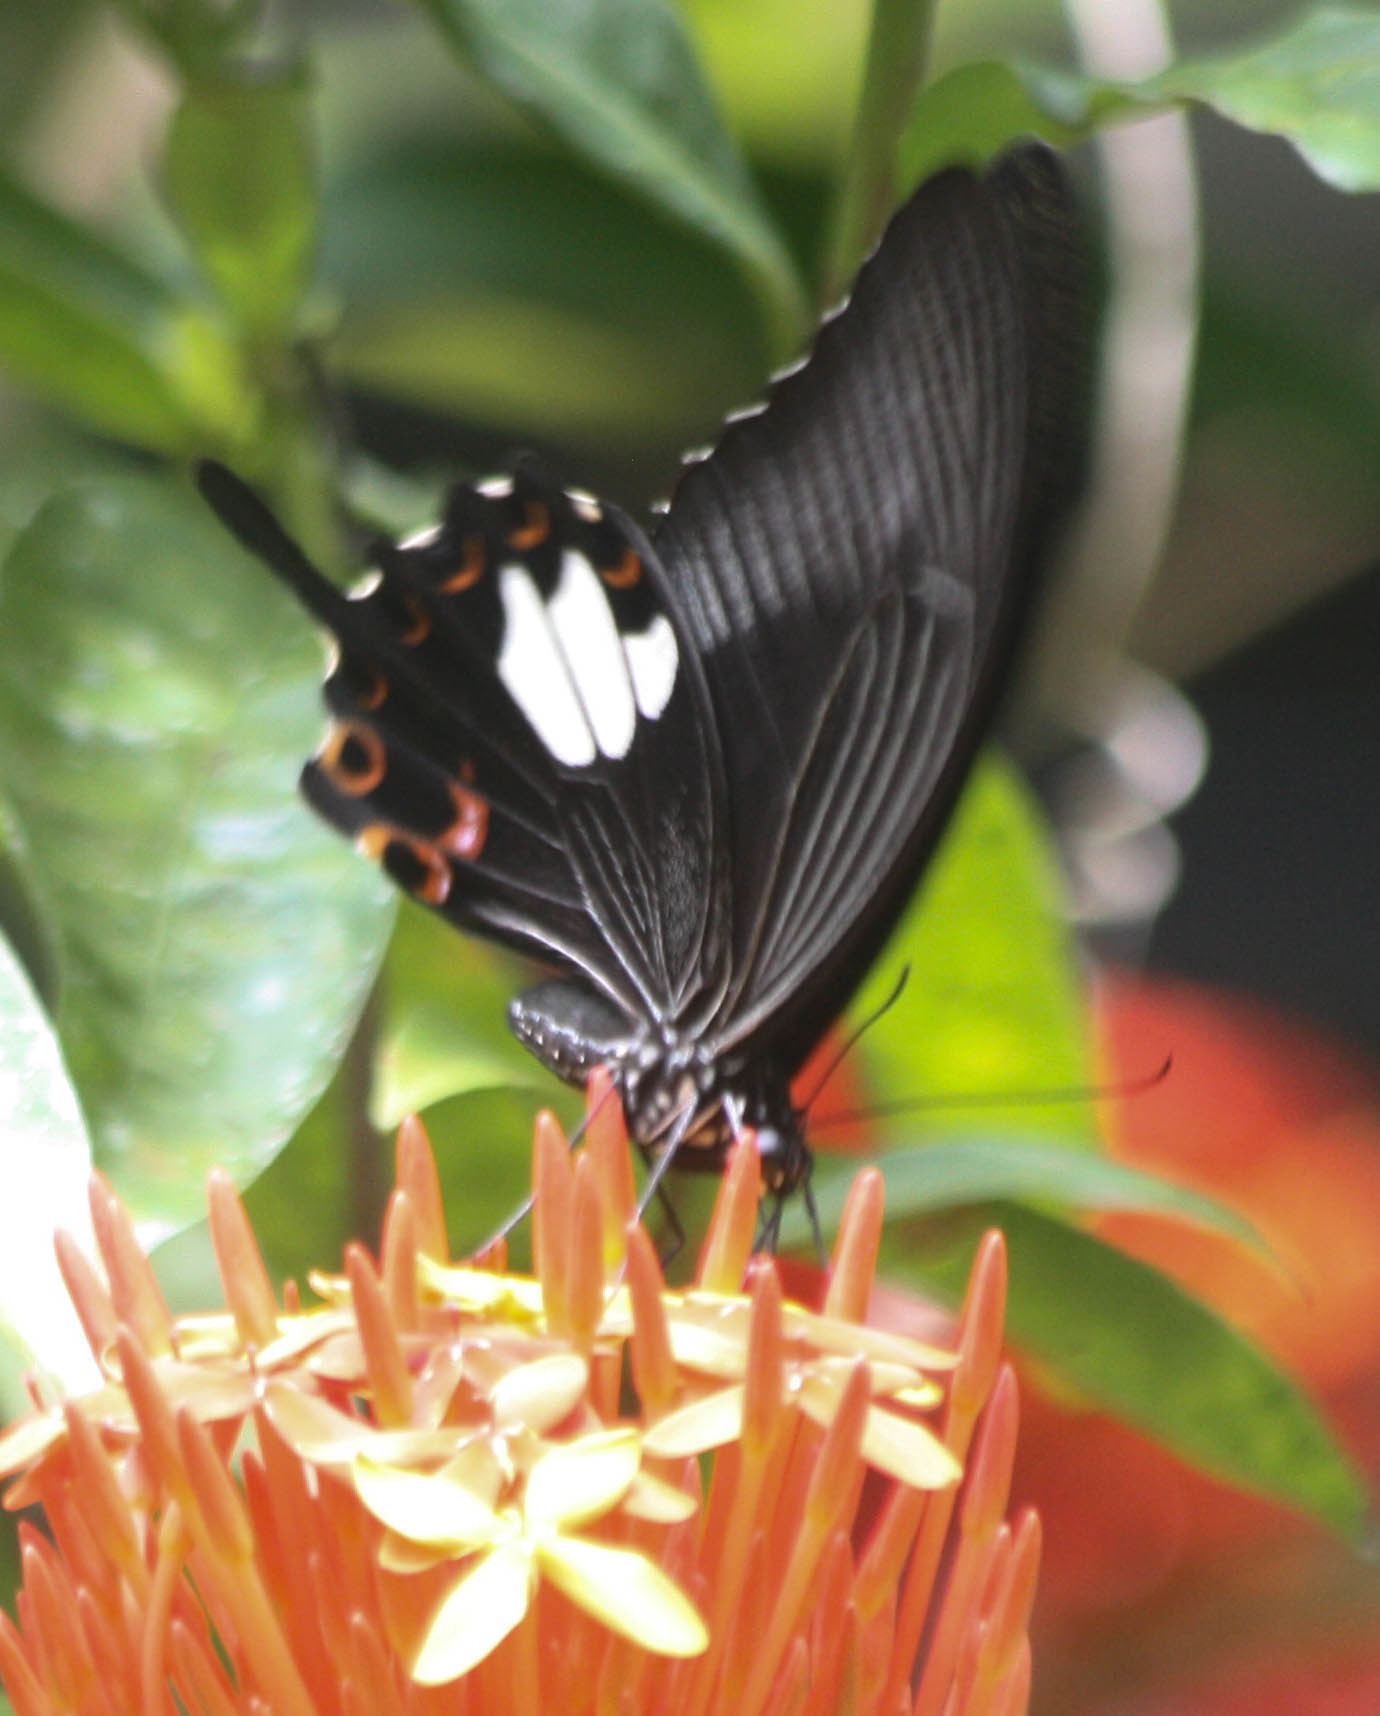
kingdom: Animalia
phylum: Arthropoda
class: Insecta
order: Lepidoptera
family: Papilionidae
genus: Papilio
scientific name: Papilio helenus
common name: Red helen
